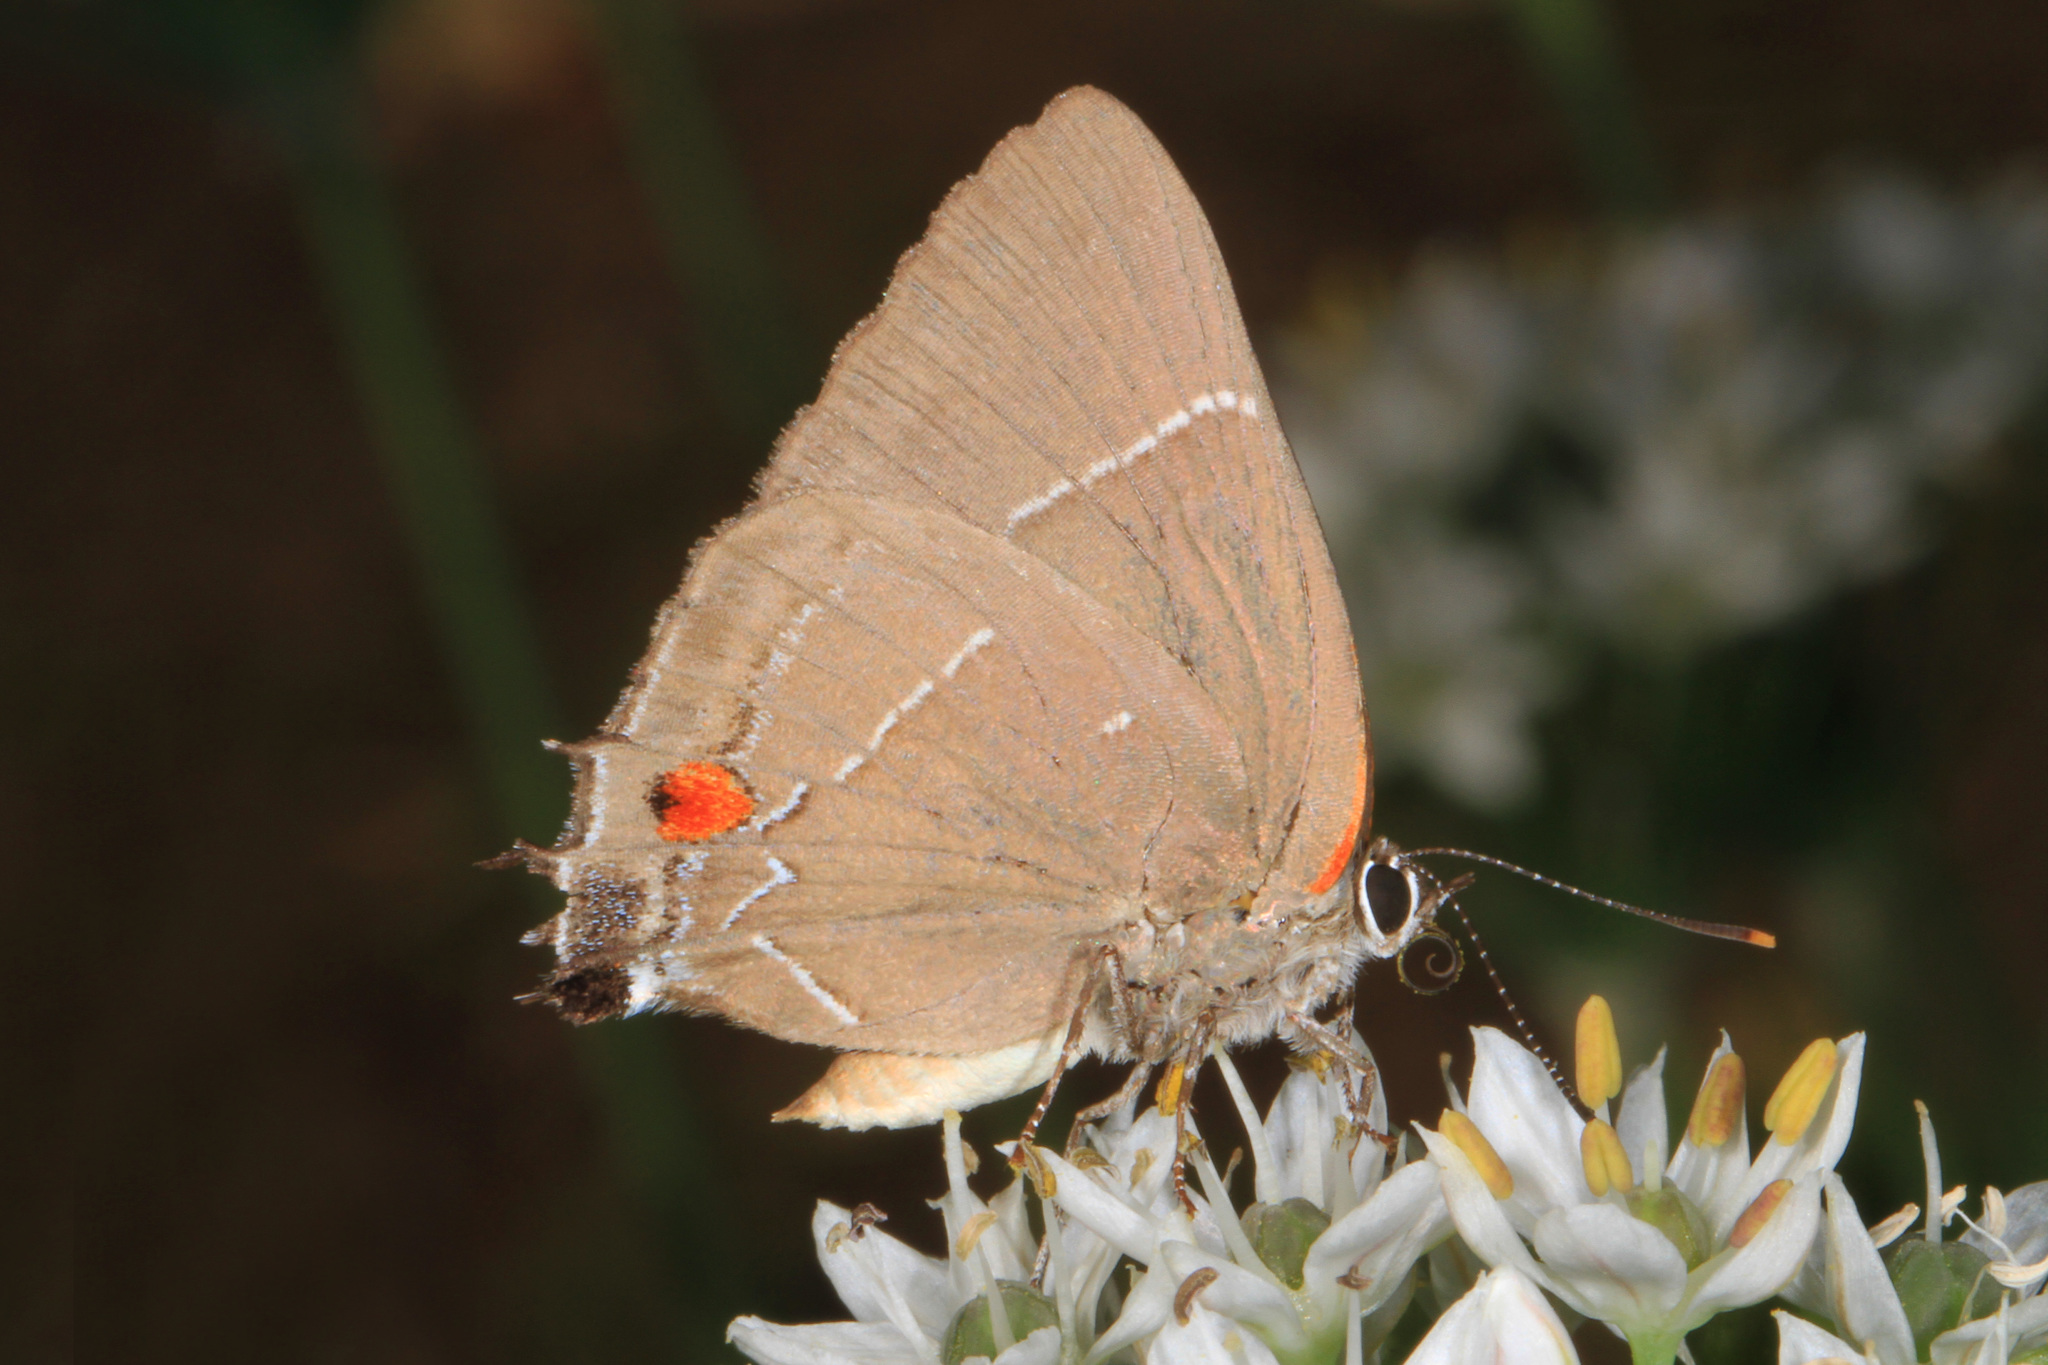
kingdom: Animalia
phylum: Arthropoda
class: Insecta
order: Lepidoptera
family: Lycaenidae
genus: Parrhasius
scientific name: Parrhasius m-album
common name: White m hairstreak
